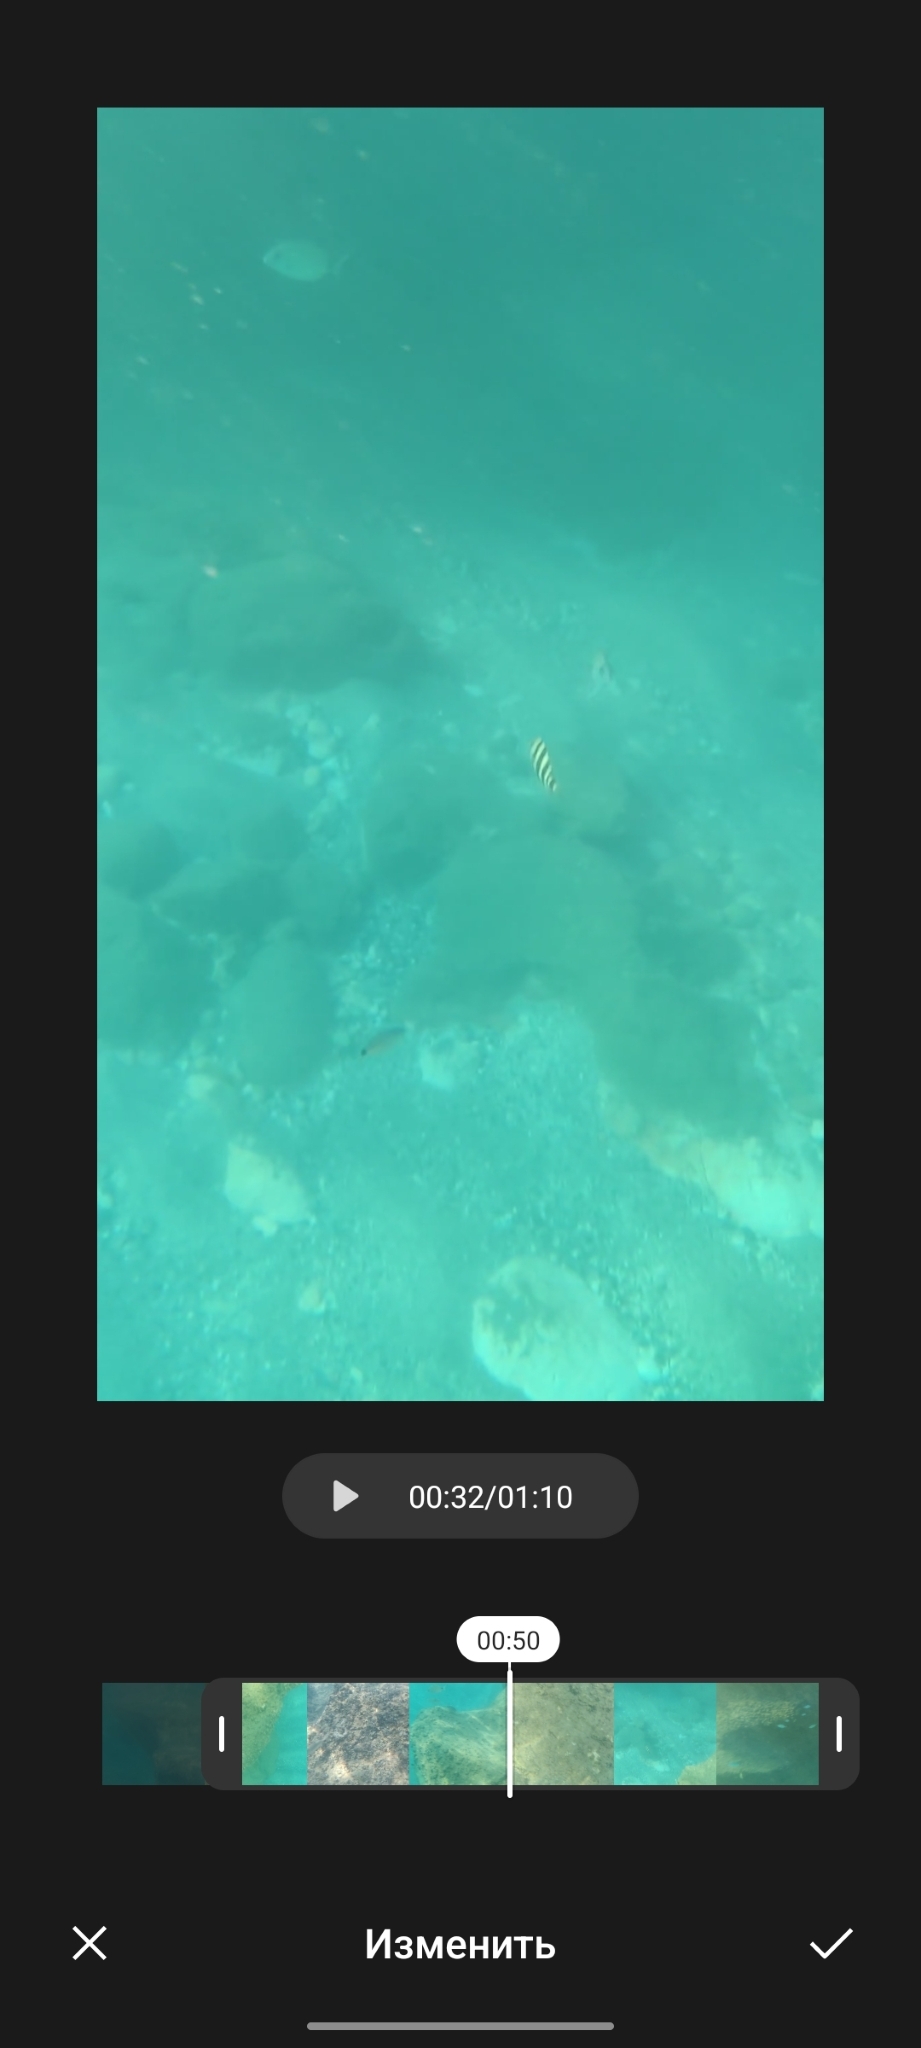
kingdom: Animalia
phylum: Chordata
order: Perciformes
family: Sparidae
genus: Diplodus
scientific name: Diplodus cervinus
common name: Oman porgy
